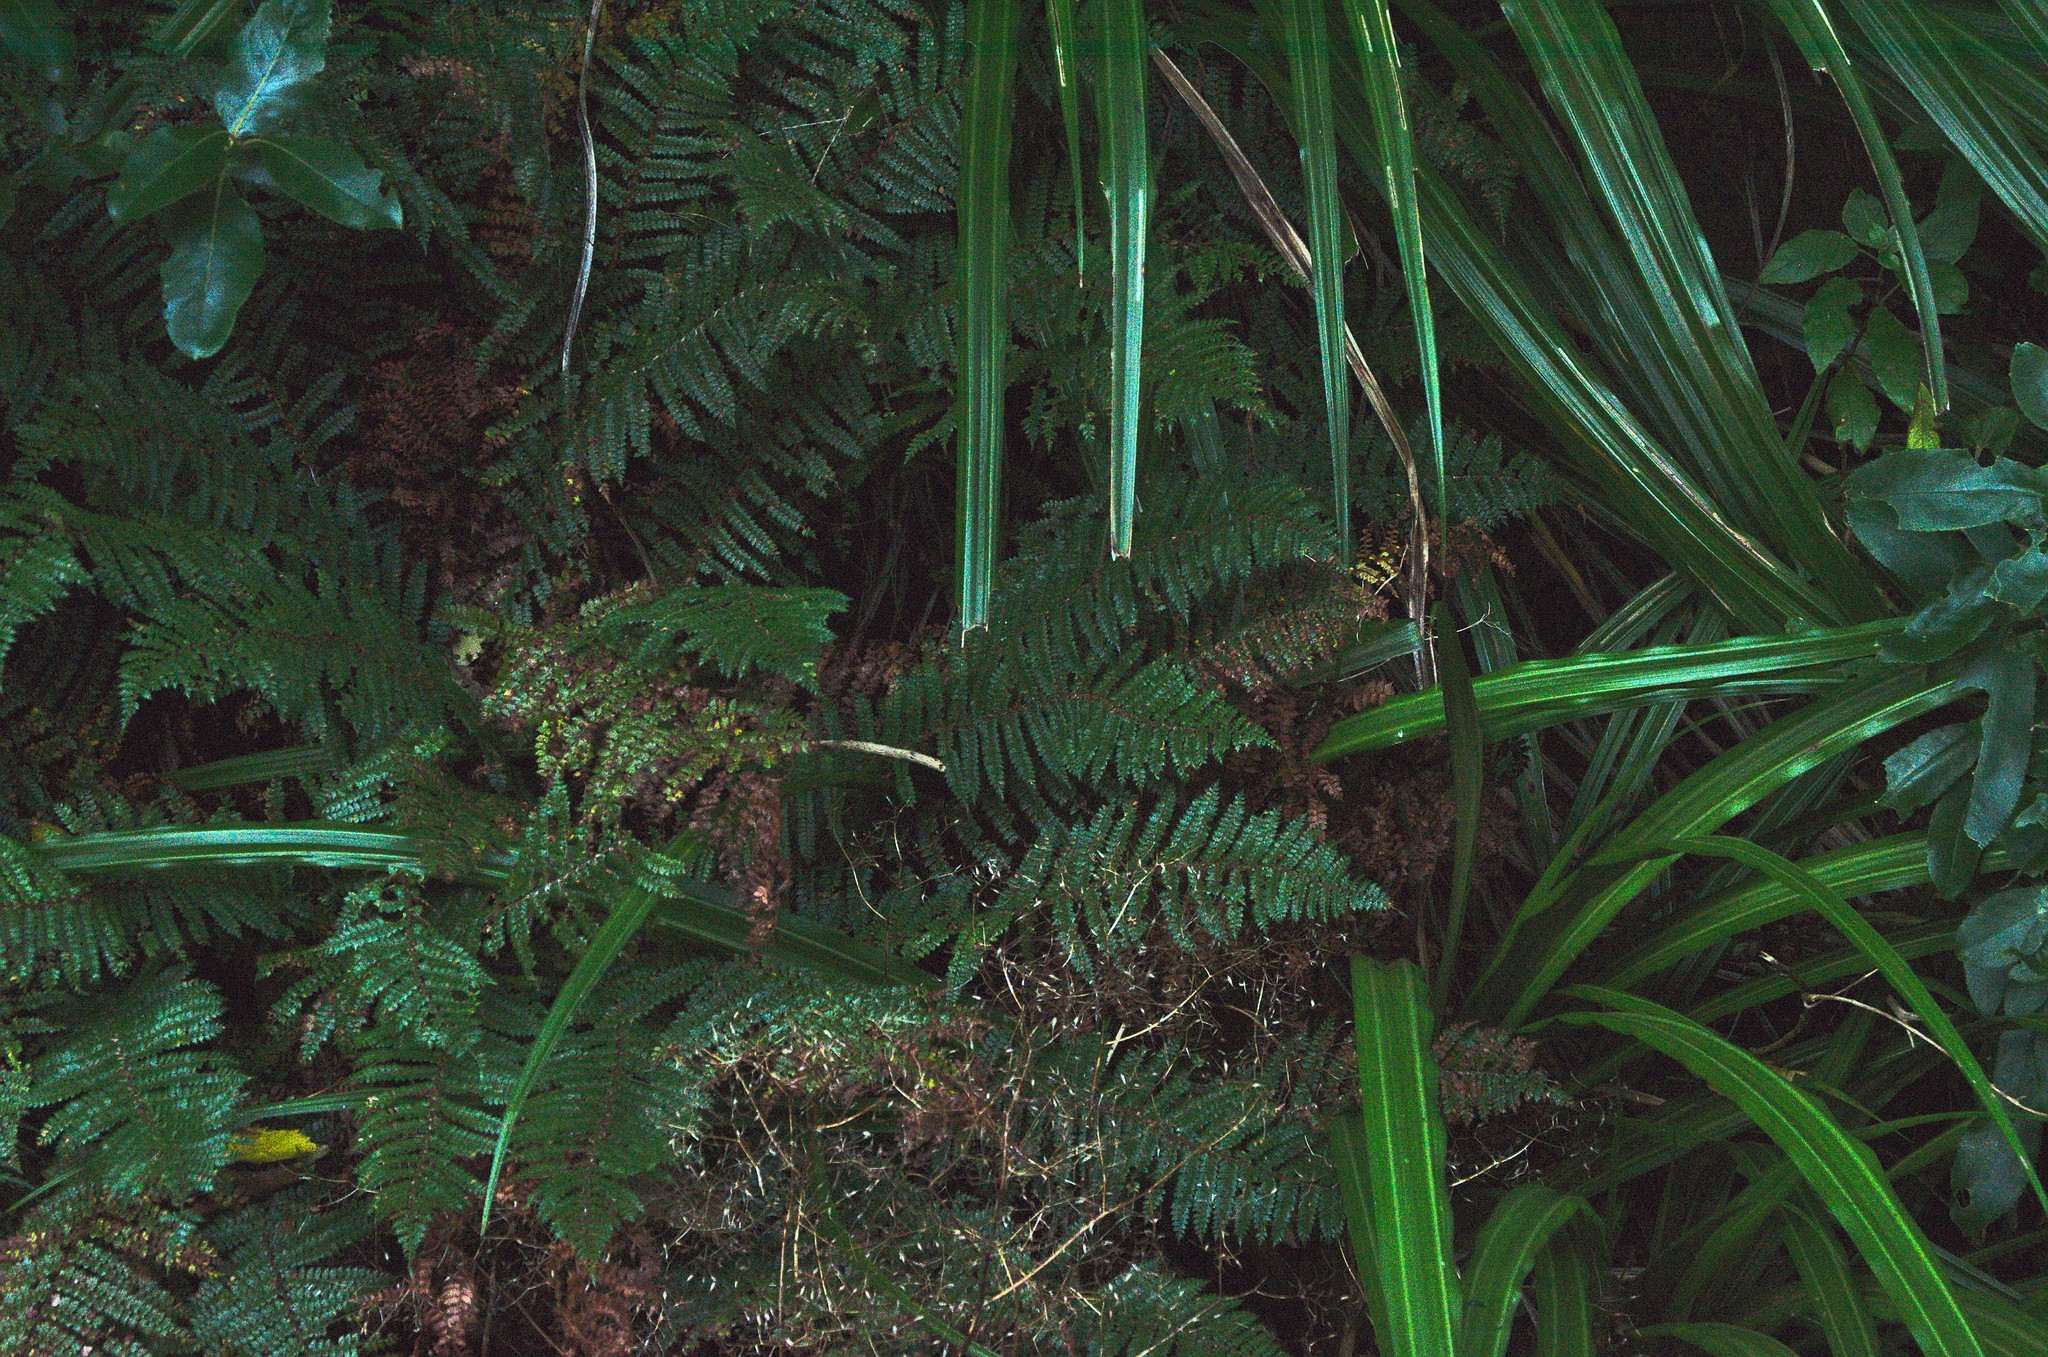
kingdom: Plantae
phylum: Tracheophyta
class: Polypodiopsida
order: Polypodiales
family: Dryopteridaceae
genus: Polystichum
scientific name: Polystichum vestitum
